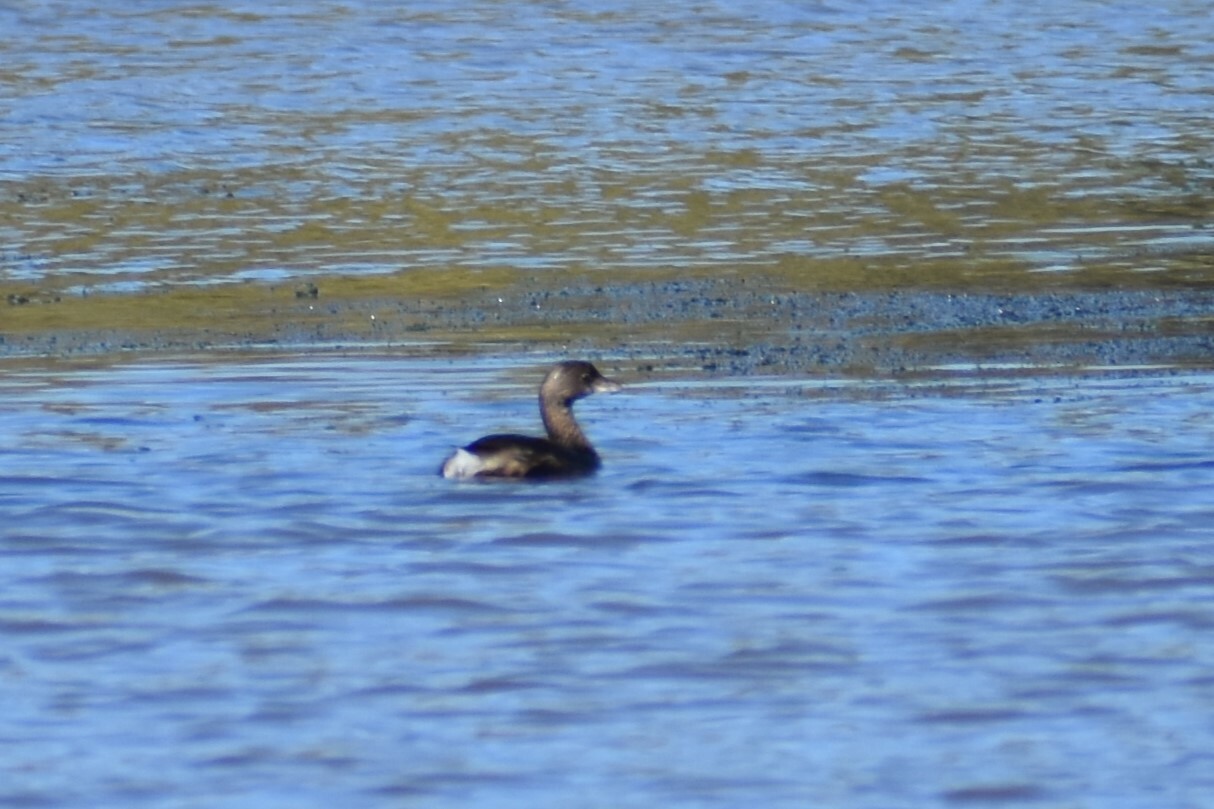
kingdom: Animalia
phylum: Chordata
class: Aves
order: Podicipediformes
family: Podicipedidae
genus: Podilymbus
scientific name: Podilymbus podiceps
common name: Pied-billed grebe
